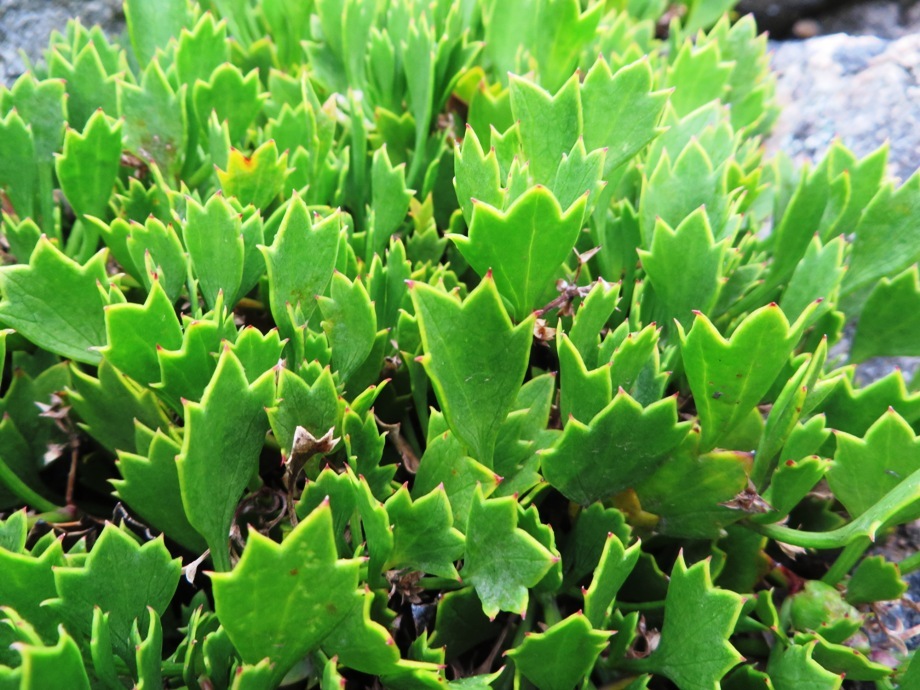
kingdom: Plantae
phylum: Tracheophyta
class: Magnoliopsida
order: Apiales
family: Apiaceae
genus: Centella
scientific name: Centella triloba
